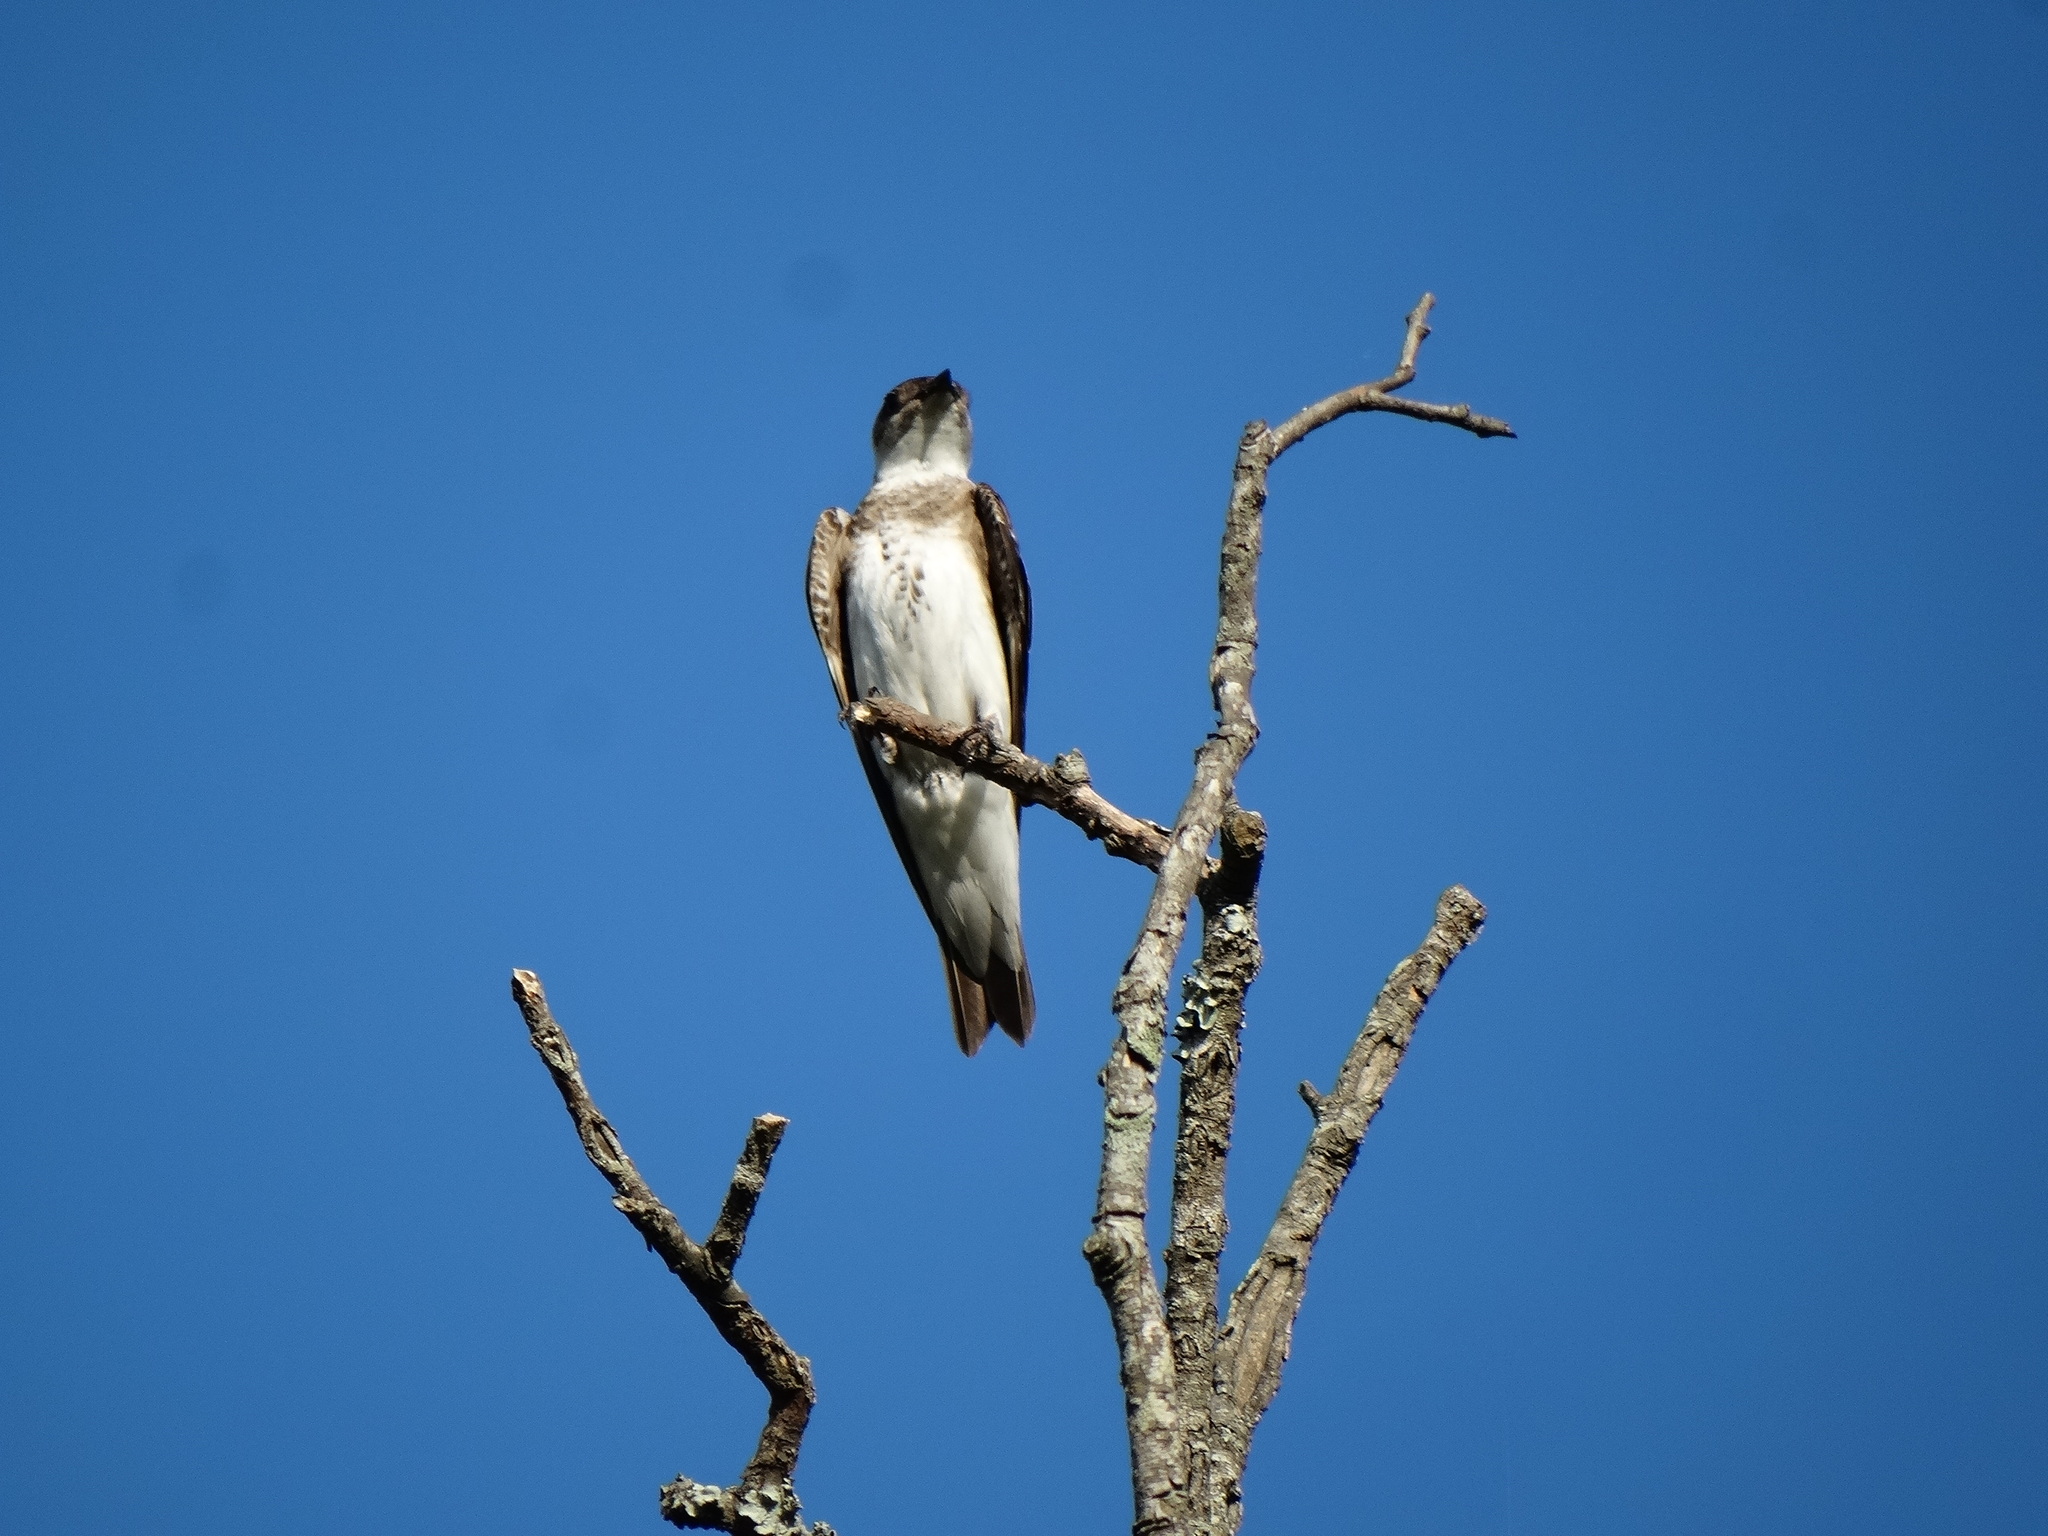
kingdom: Animalia
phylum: Chordata
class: Aves
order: Passeriformes
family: Hirundinidae
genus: Progne
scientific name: Progne tapera
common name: Brown-chested martin
